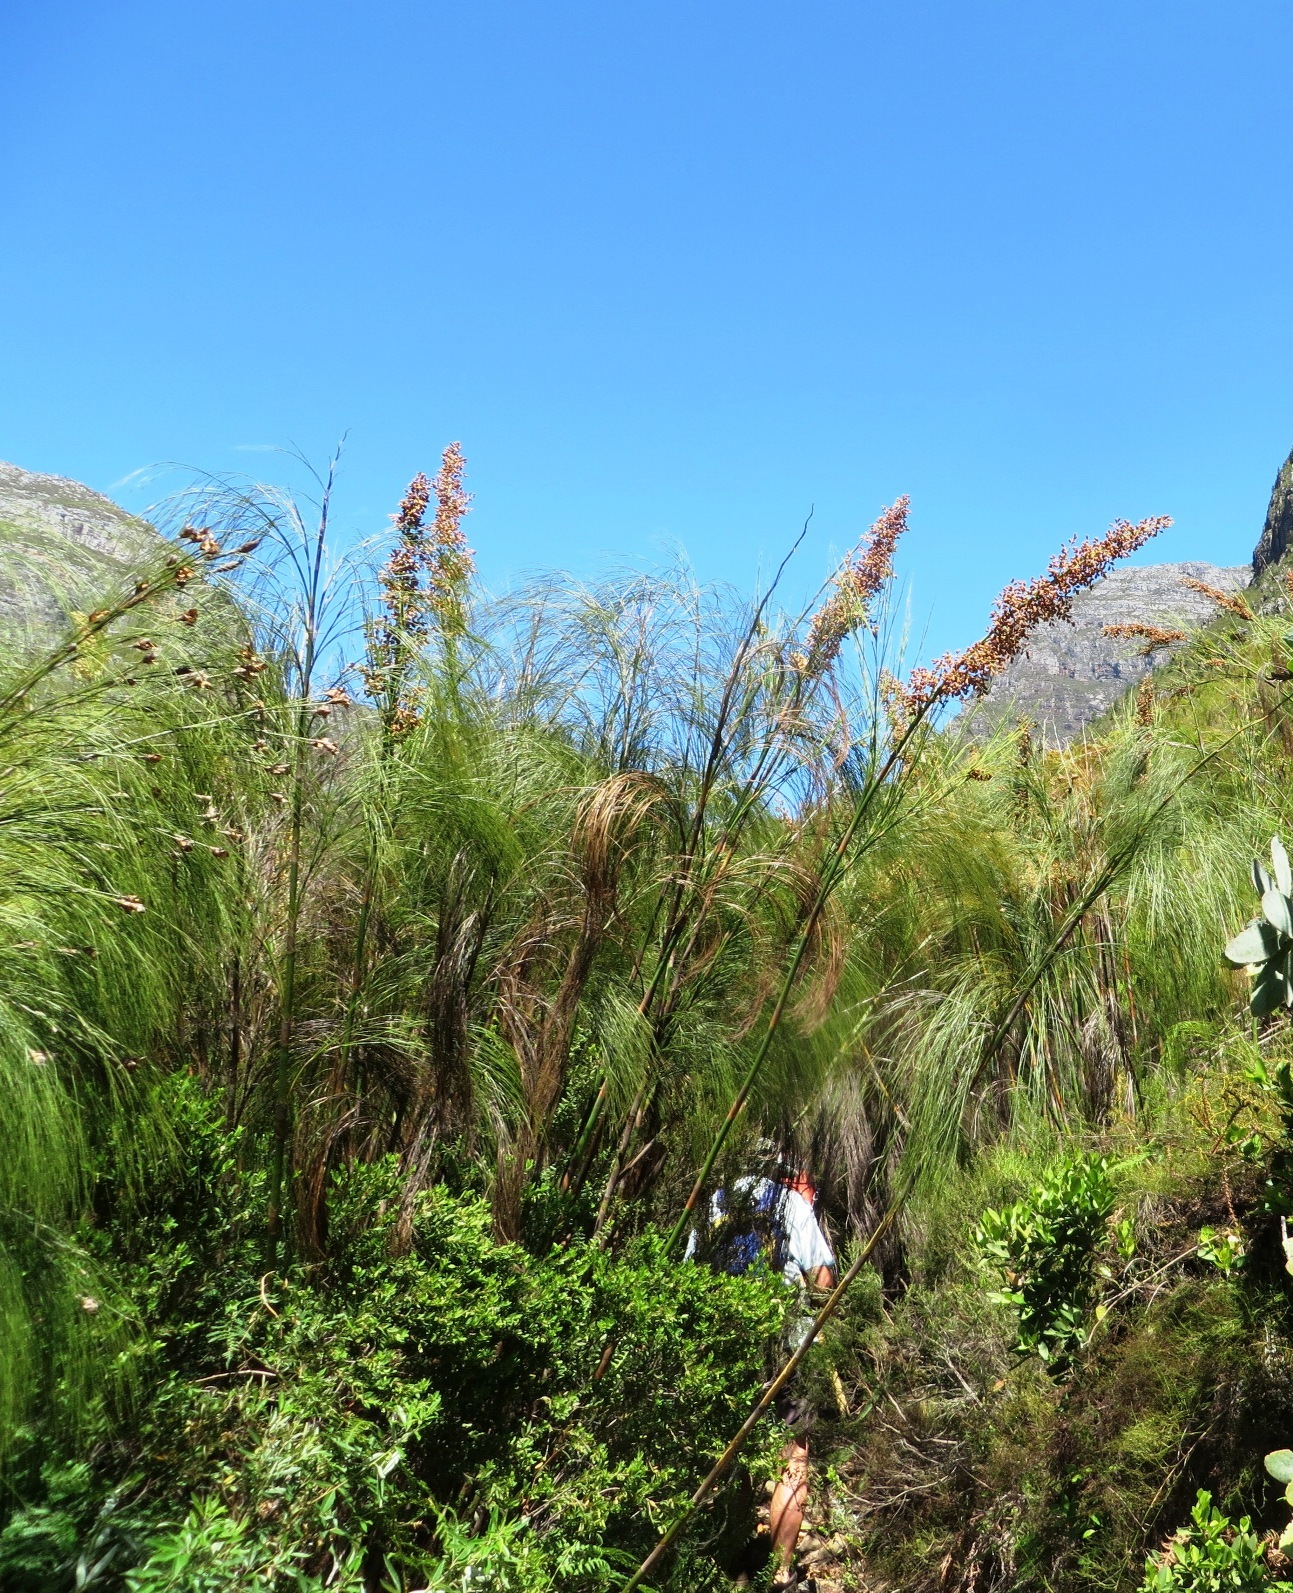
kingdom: Plantae
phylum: Tracheophyta
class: Liliopsida
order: Poales
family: Restionaceae
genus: Cannomois
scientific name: Cannomois grandis
